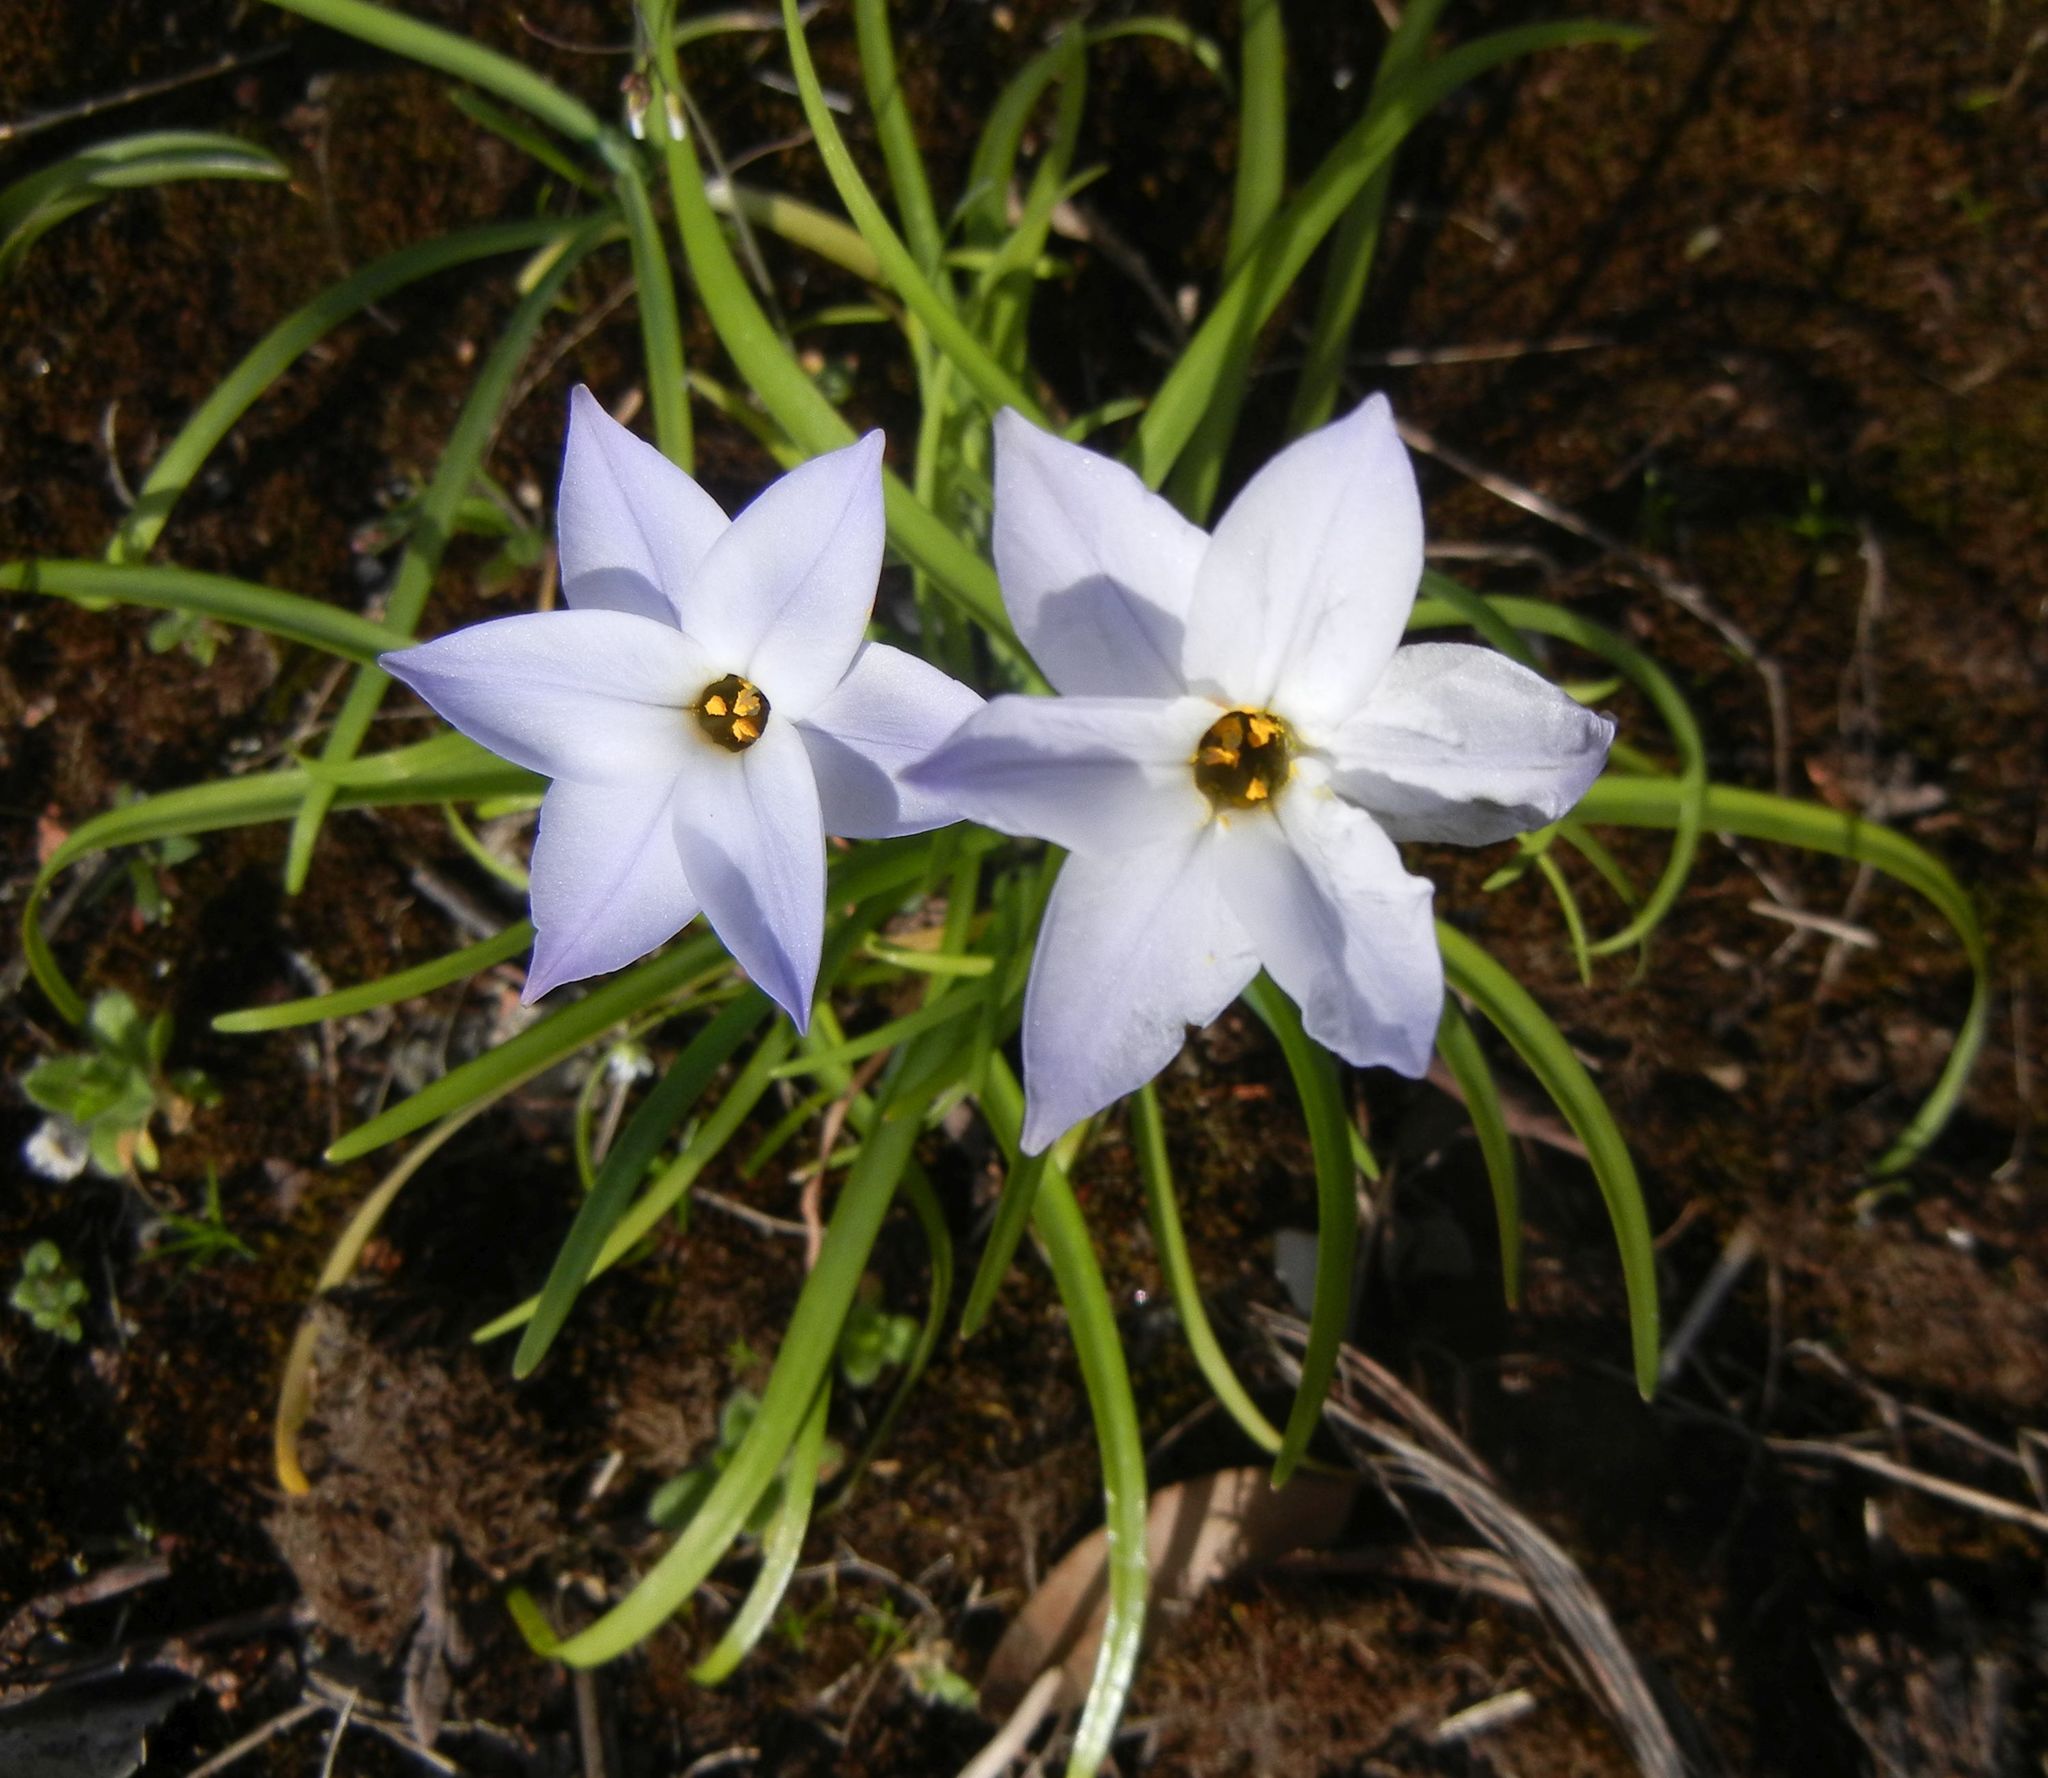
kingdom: Plantae
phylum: Tracheophyta
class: Liliopsida
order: Asparagales
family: Amaryllidaceae
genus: Ipheion
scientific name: Ipheion uniflorum
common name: Spring starflower
